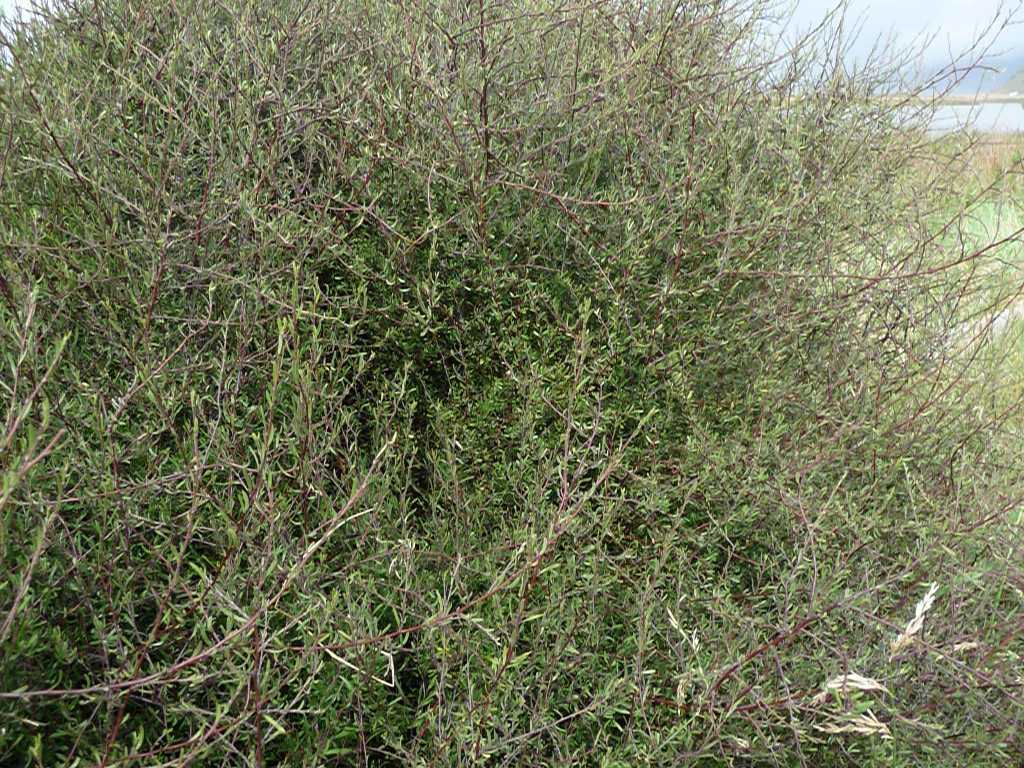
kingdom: Plantae
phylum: Tracheophyta
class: Magnoliopsida
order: Malvales
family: Malvaceae
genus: Plagianthus
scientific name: Plagianthus divaricatus
